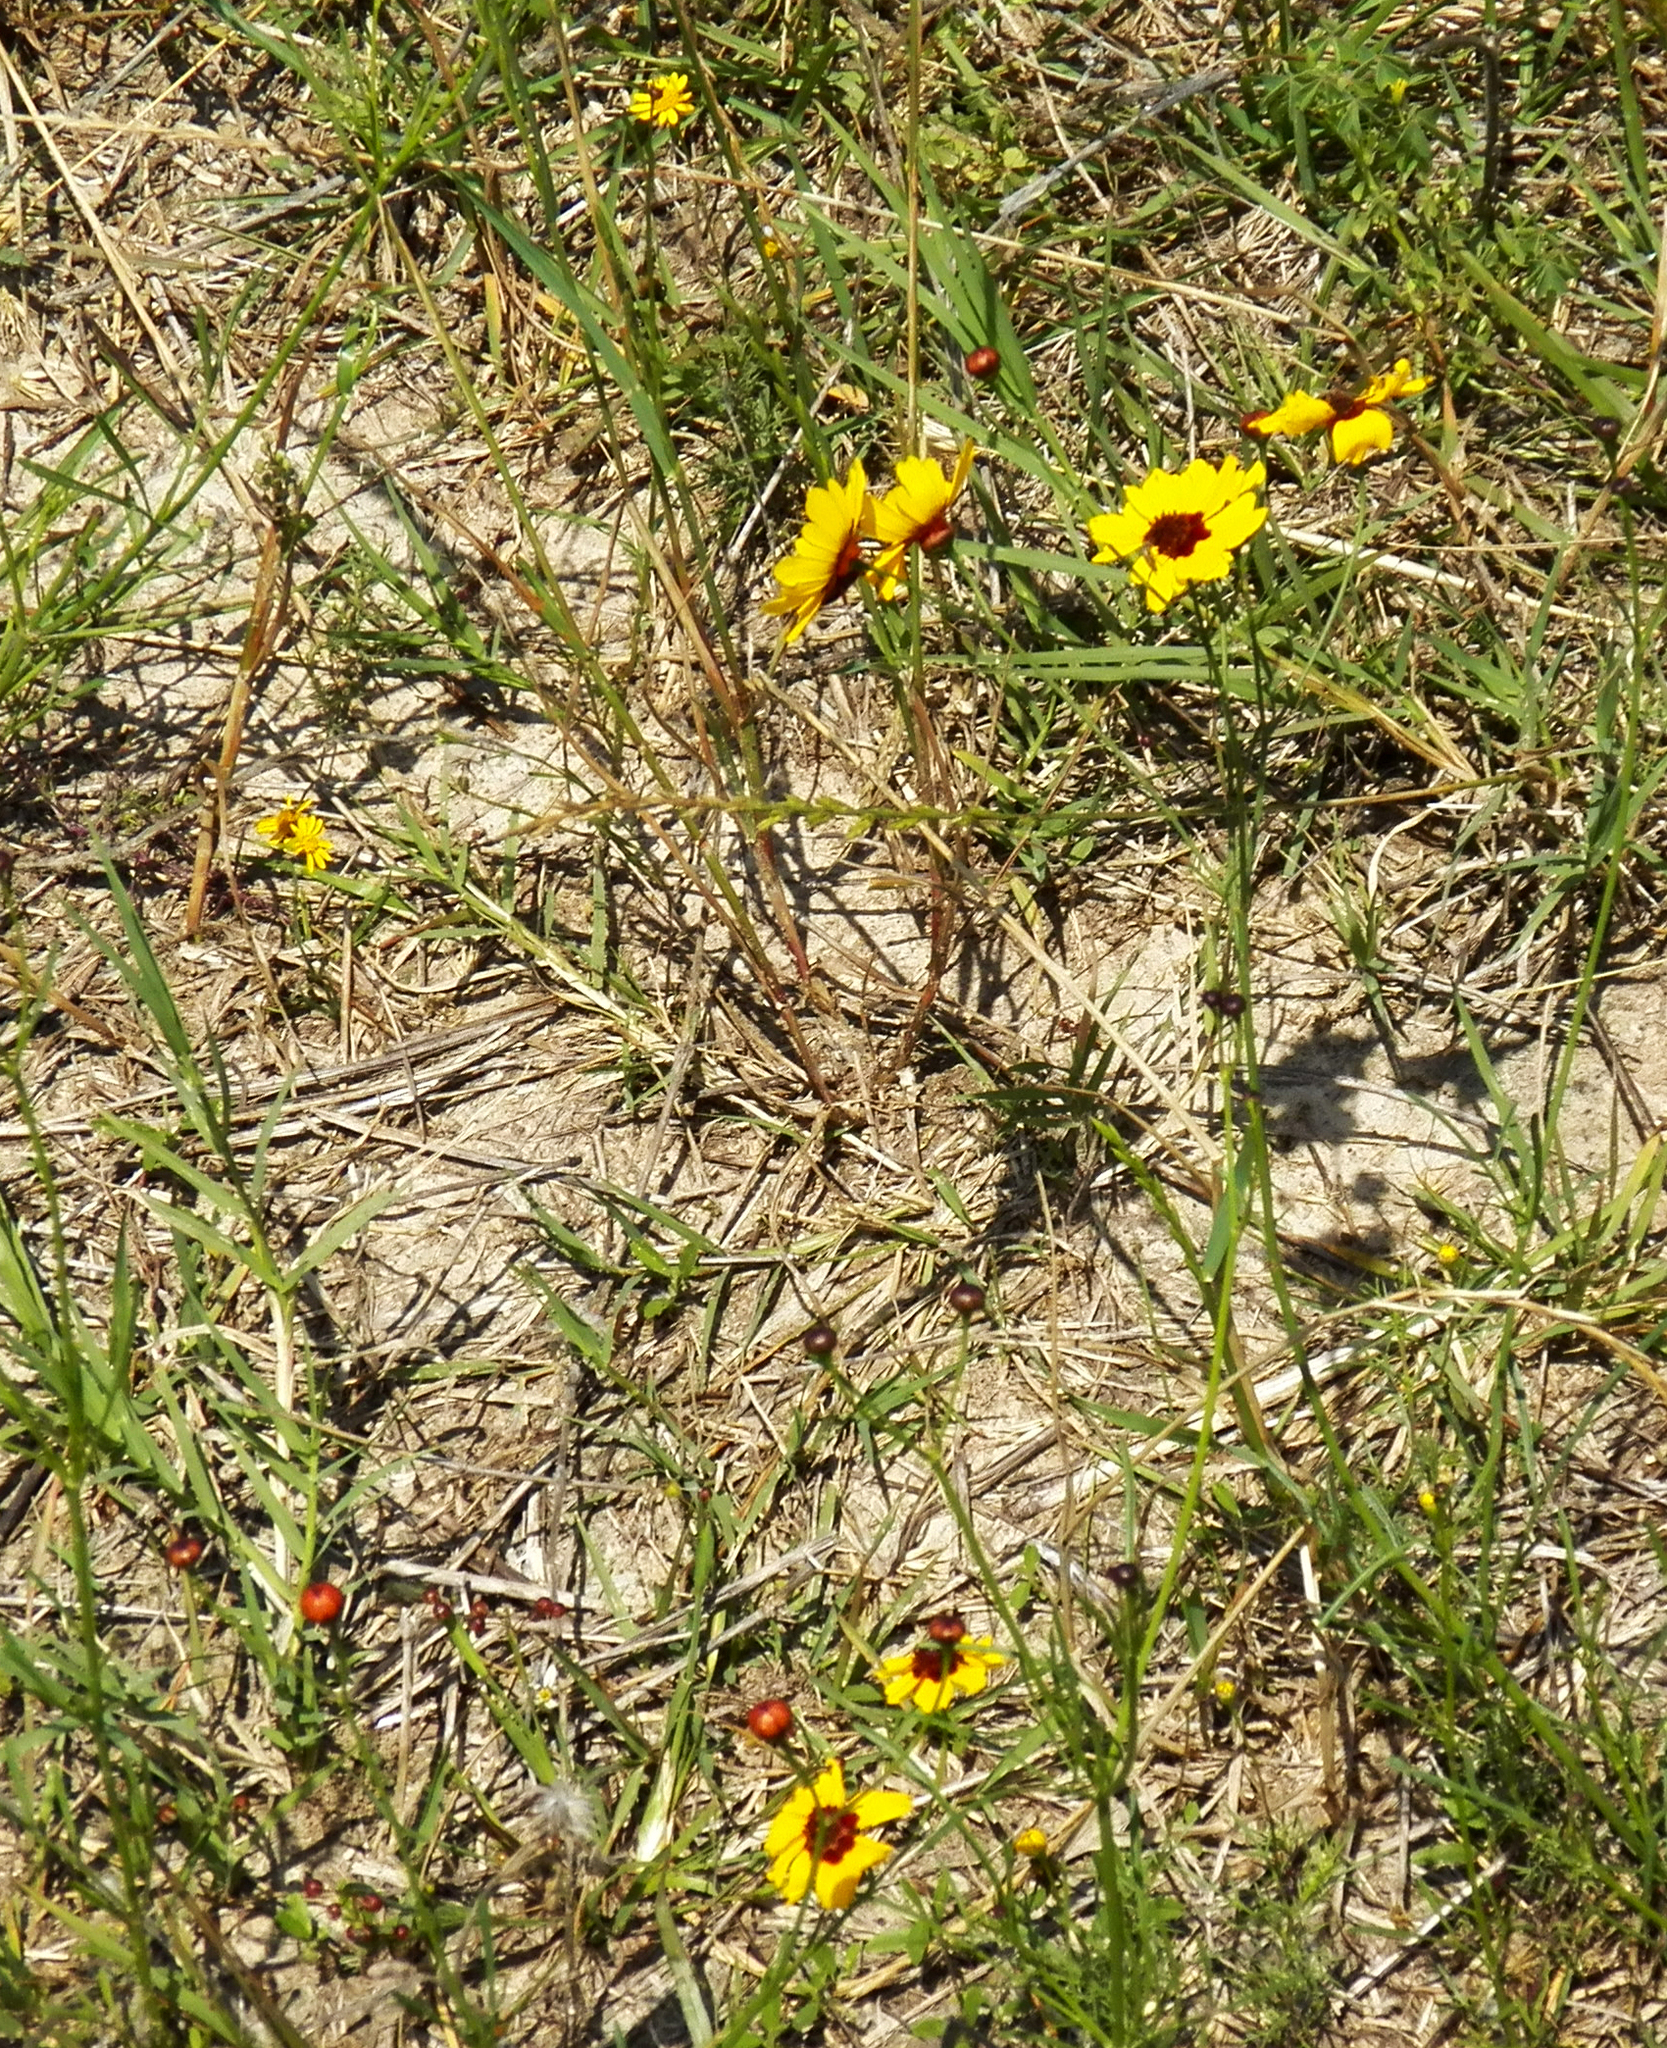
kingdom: Plantae
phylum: Tracheophyta
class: Magnoliopsida
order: Asterales
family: Asteraceae
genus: Coreopsis
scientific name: Coreopsis tinctoria
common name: Garden tickseed
